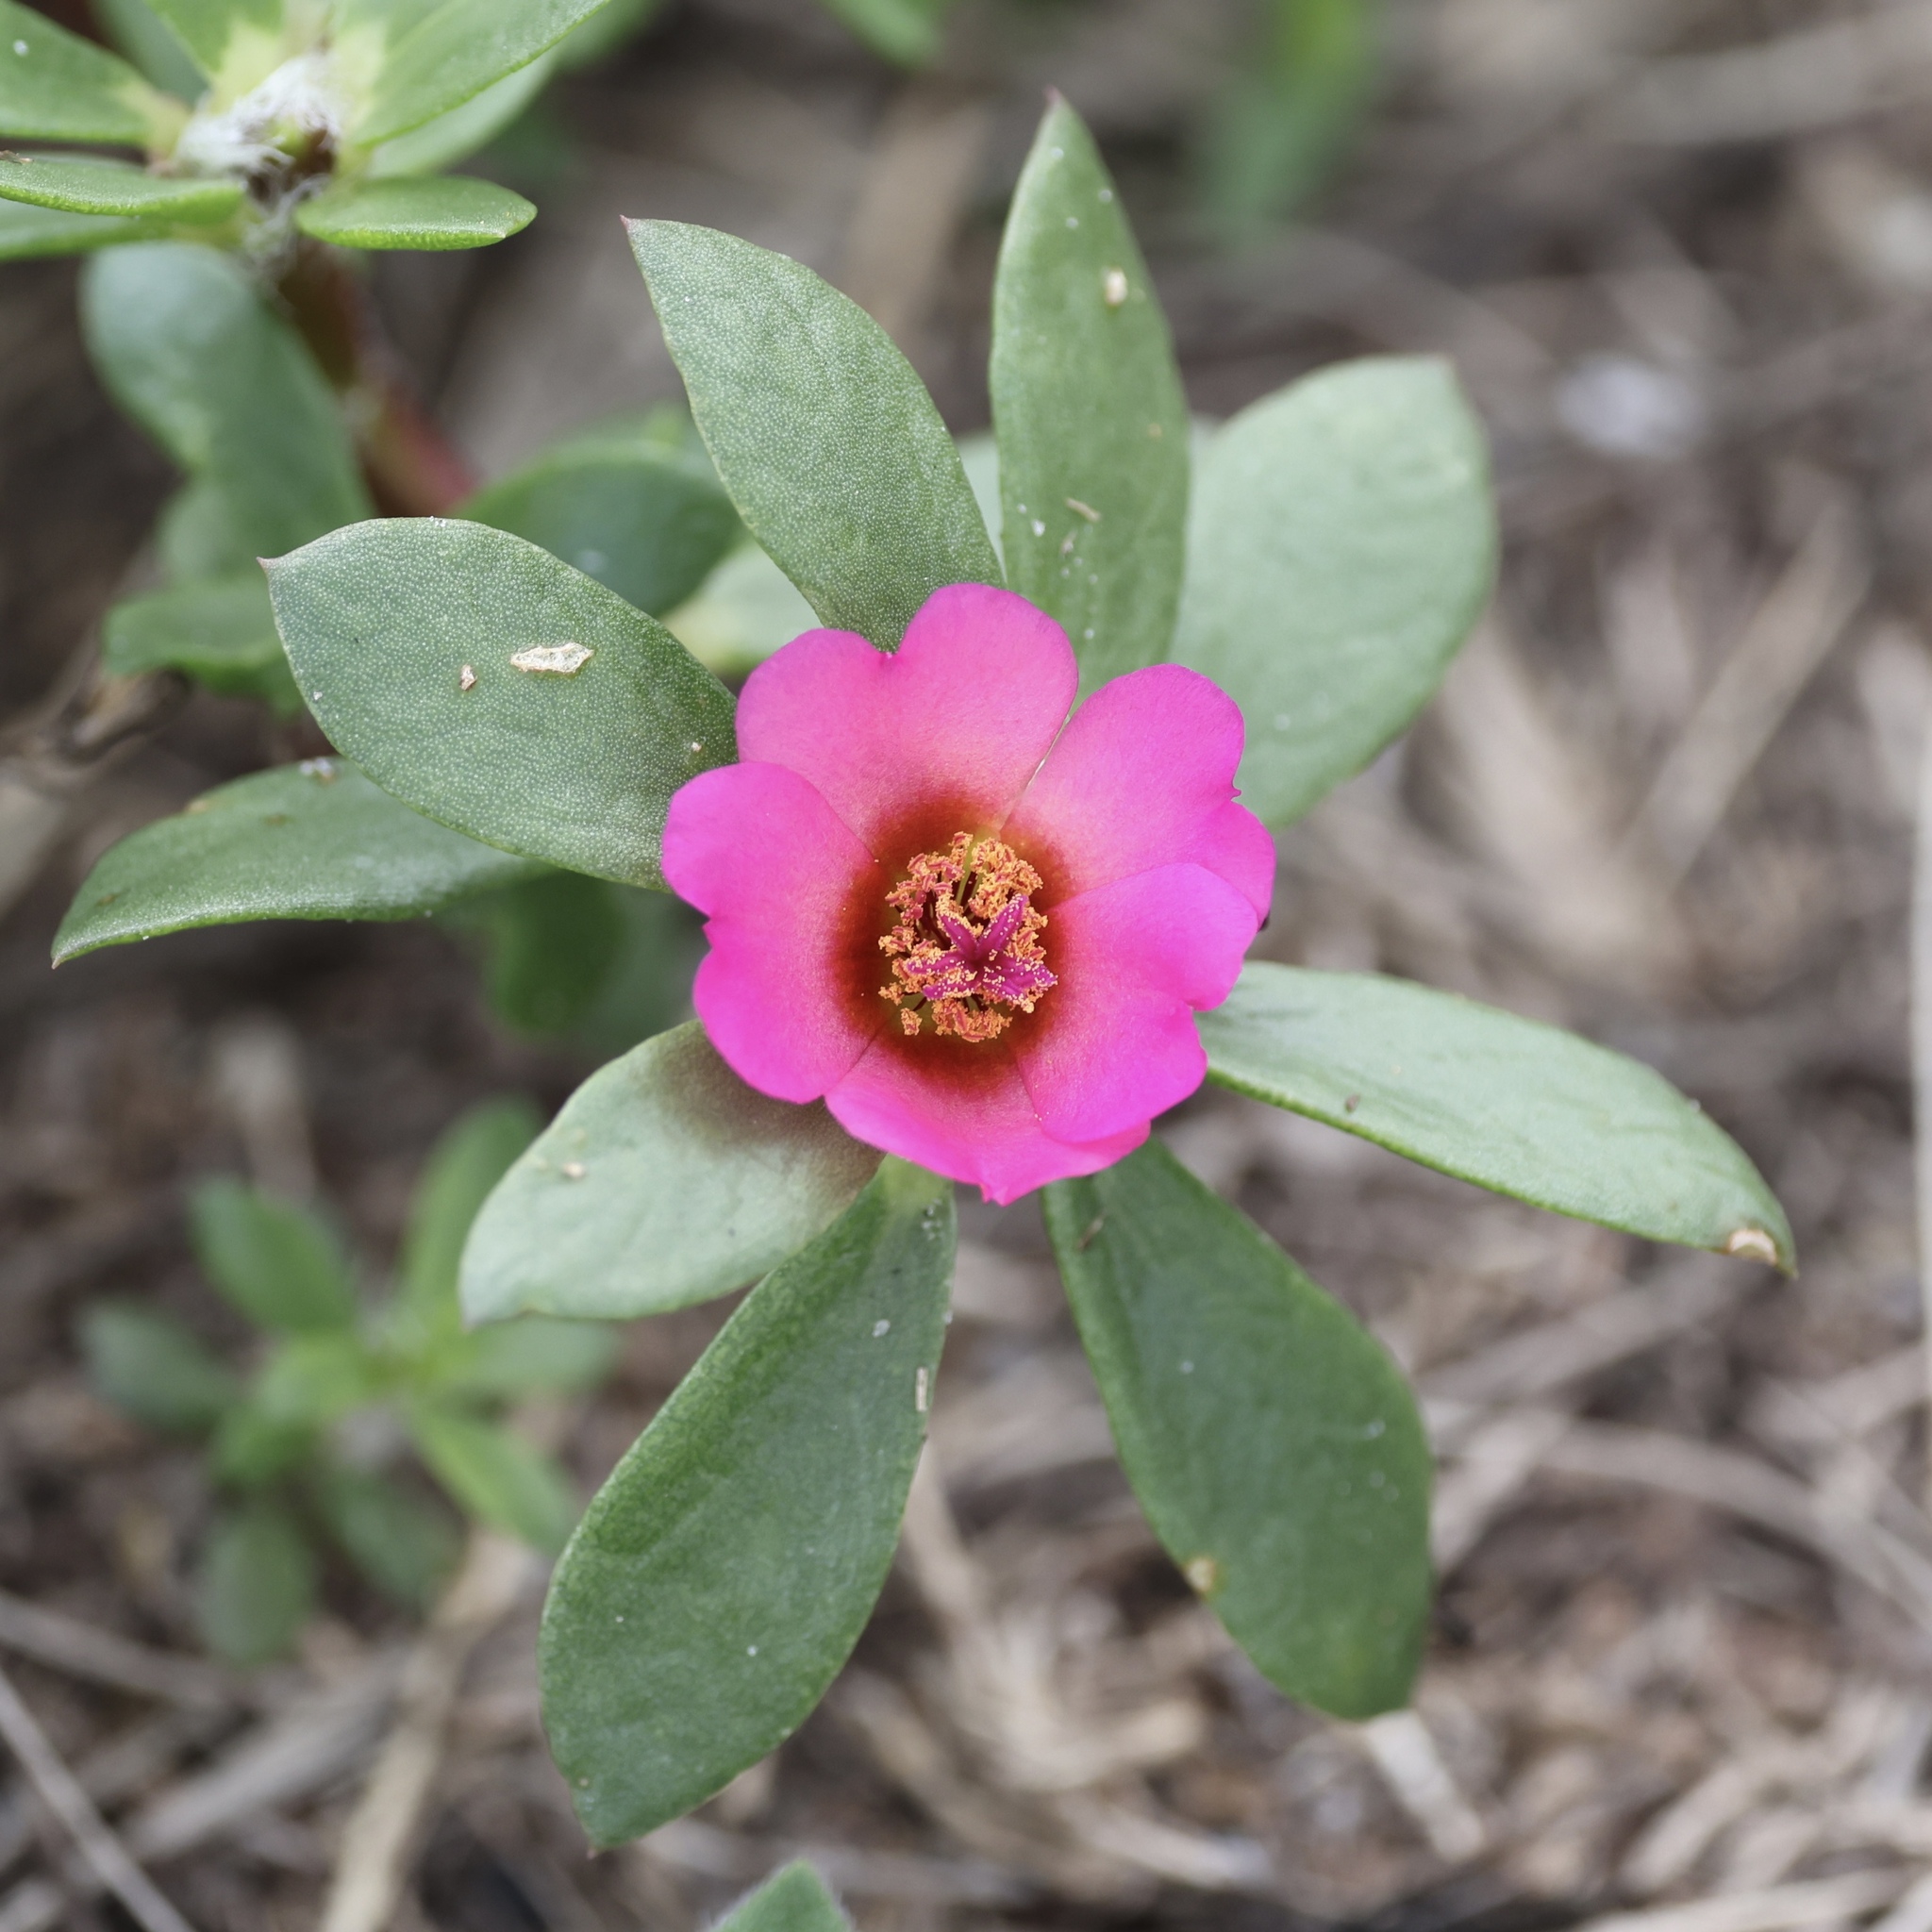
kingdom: Plantae
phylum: Tracheophyta
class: Magnoliopsida
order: Caryophyllales
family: Portulacaceae
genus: Portulaca
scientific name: Portulaca amilis
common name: Paraguayan purslane
